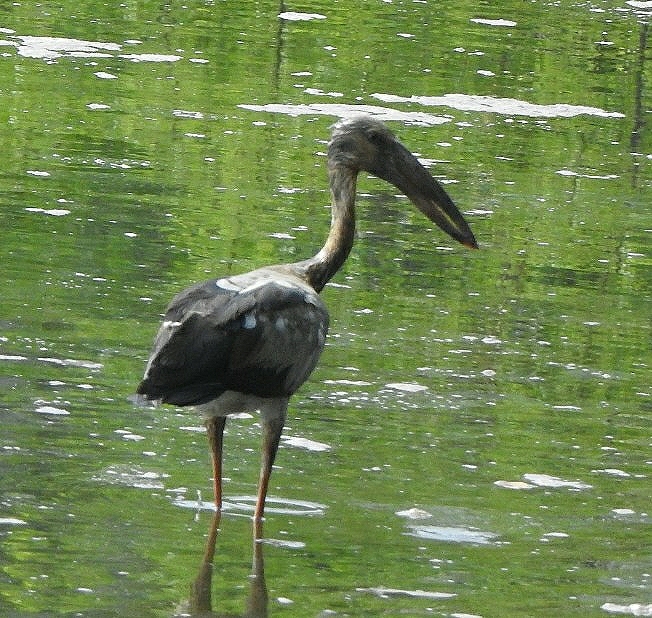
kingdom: Animalia
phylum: Chordata
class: Aves
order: Ciconiiformes
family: Ciconiidae
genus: Anastomus
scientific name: Anastomus oscitans
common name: Asian openbill
